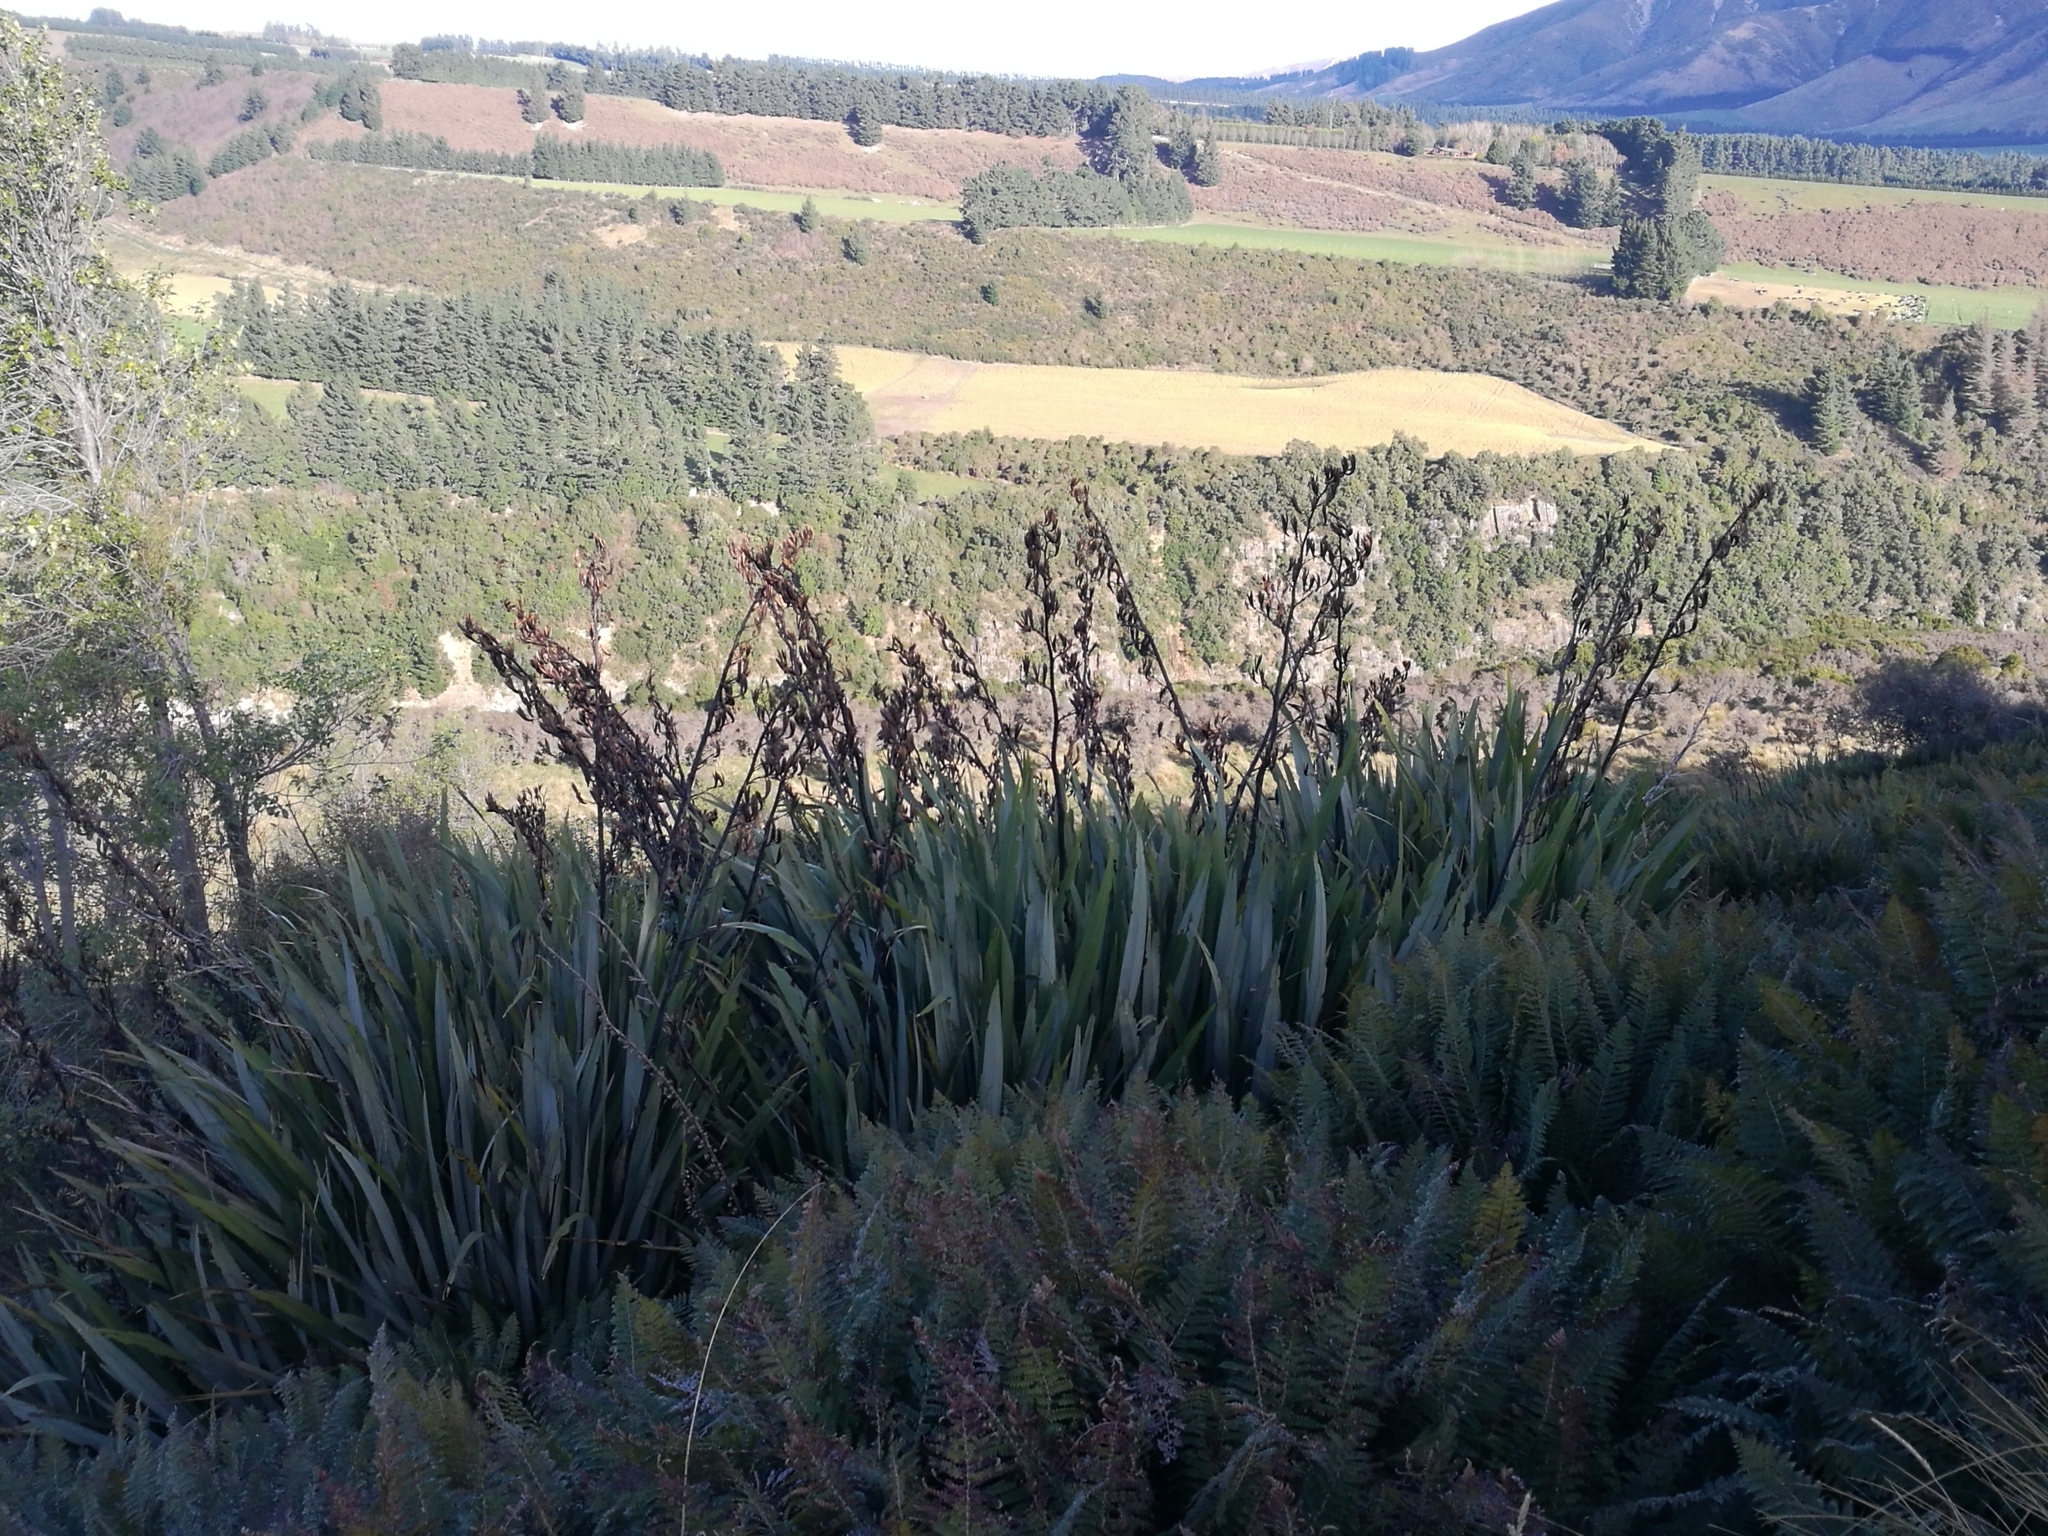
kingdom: Plantae
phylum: Tracheophyta
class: Liliopsida
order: Asparagales
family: Asphodelaceae
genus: Phormium
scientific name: Phormium tenax
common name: New zealand flax
